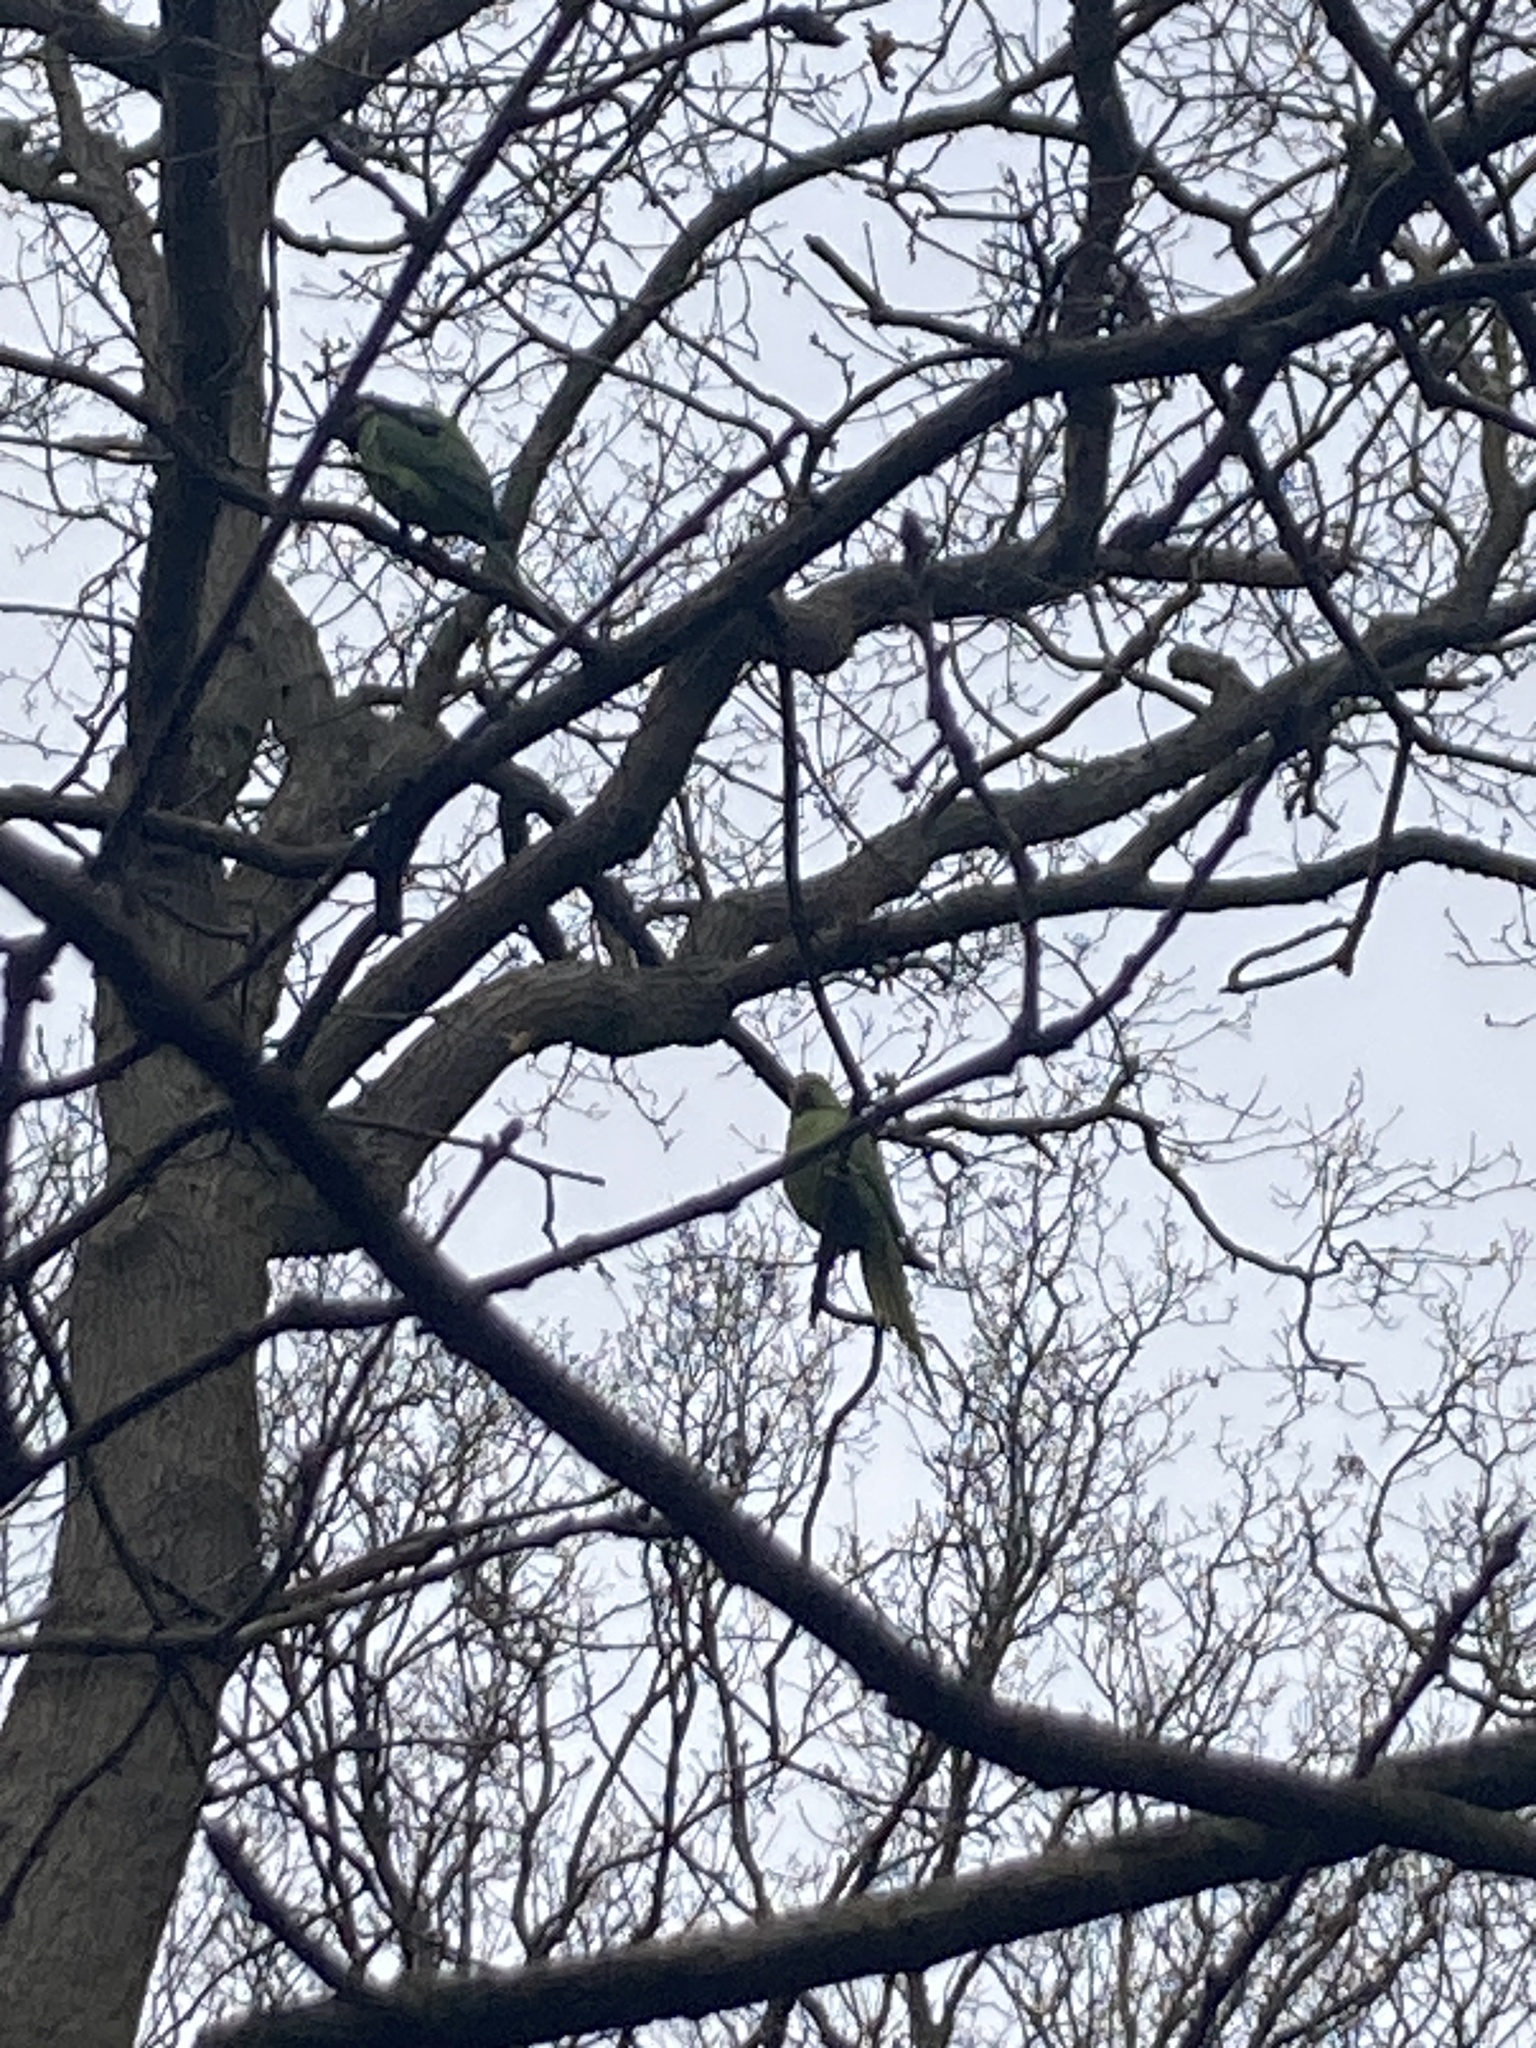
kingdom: Animalia
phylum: Chordata
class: Aves
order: Psittaciformes
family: Psittacidae
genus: Psittacula
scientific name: Psittacula krameri
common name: Rose-ringed parakeet
